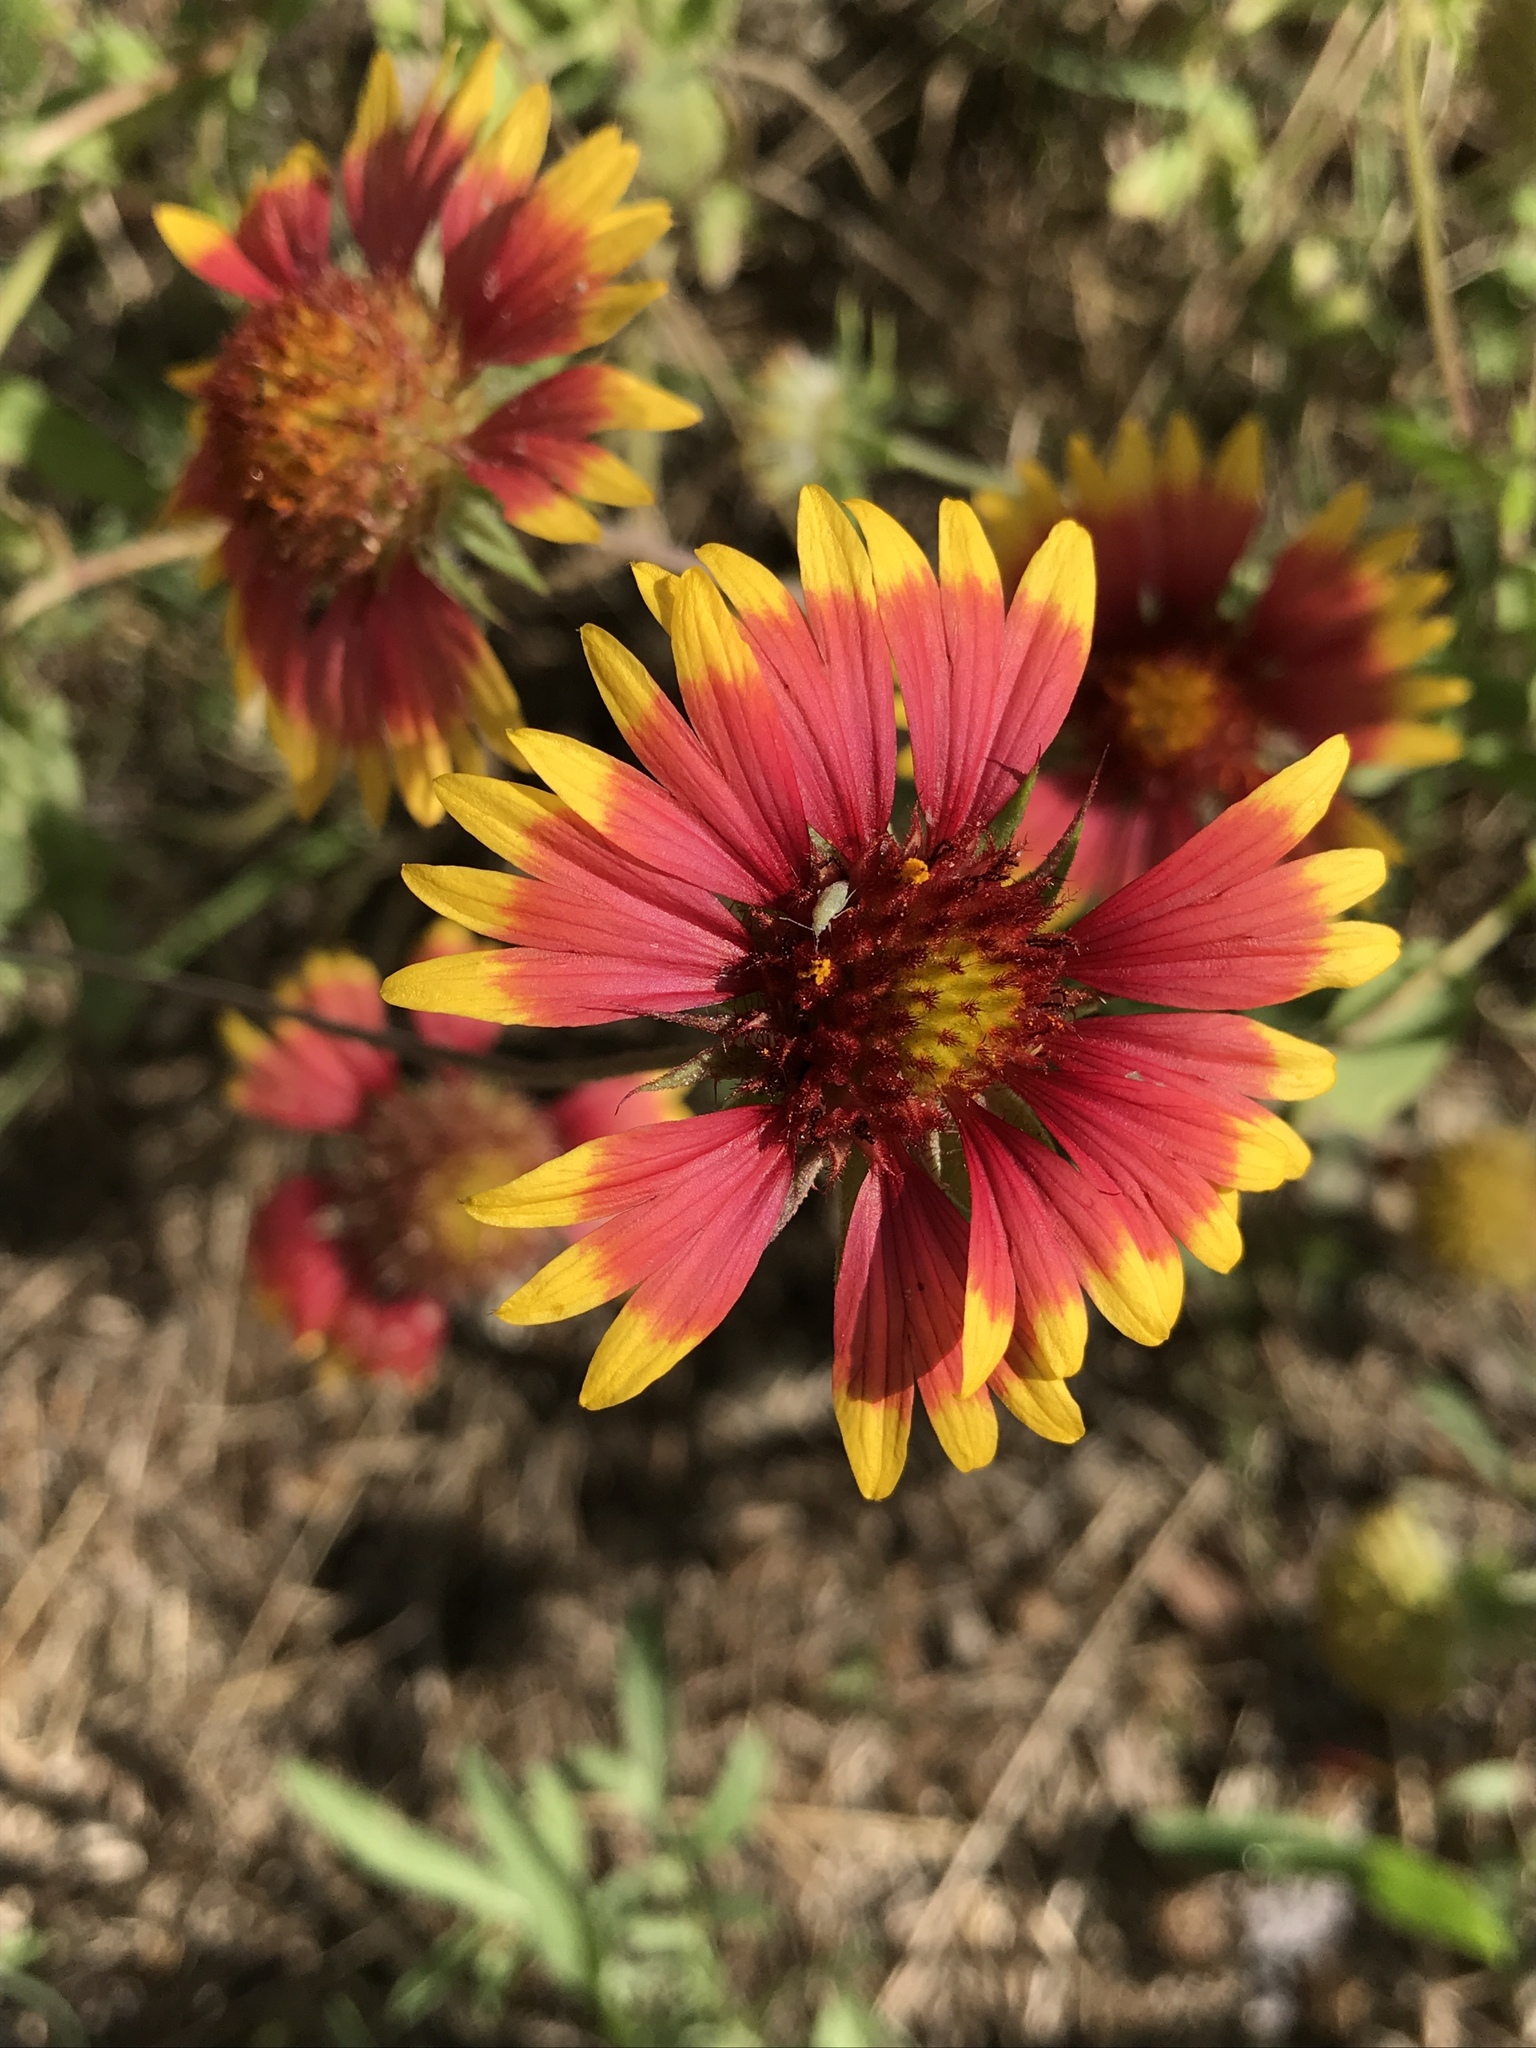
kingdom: Plantae
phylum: Tracheophyta
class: Magnoliopsida
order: Asterales
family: Asteraceae
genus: Gaillardia
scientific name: Gaillardia pulchella
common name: Firewheel
